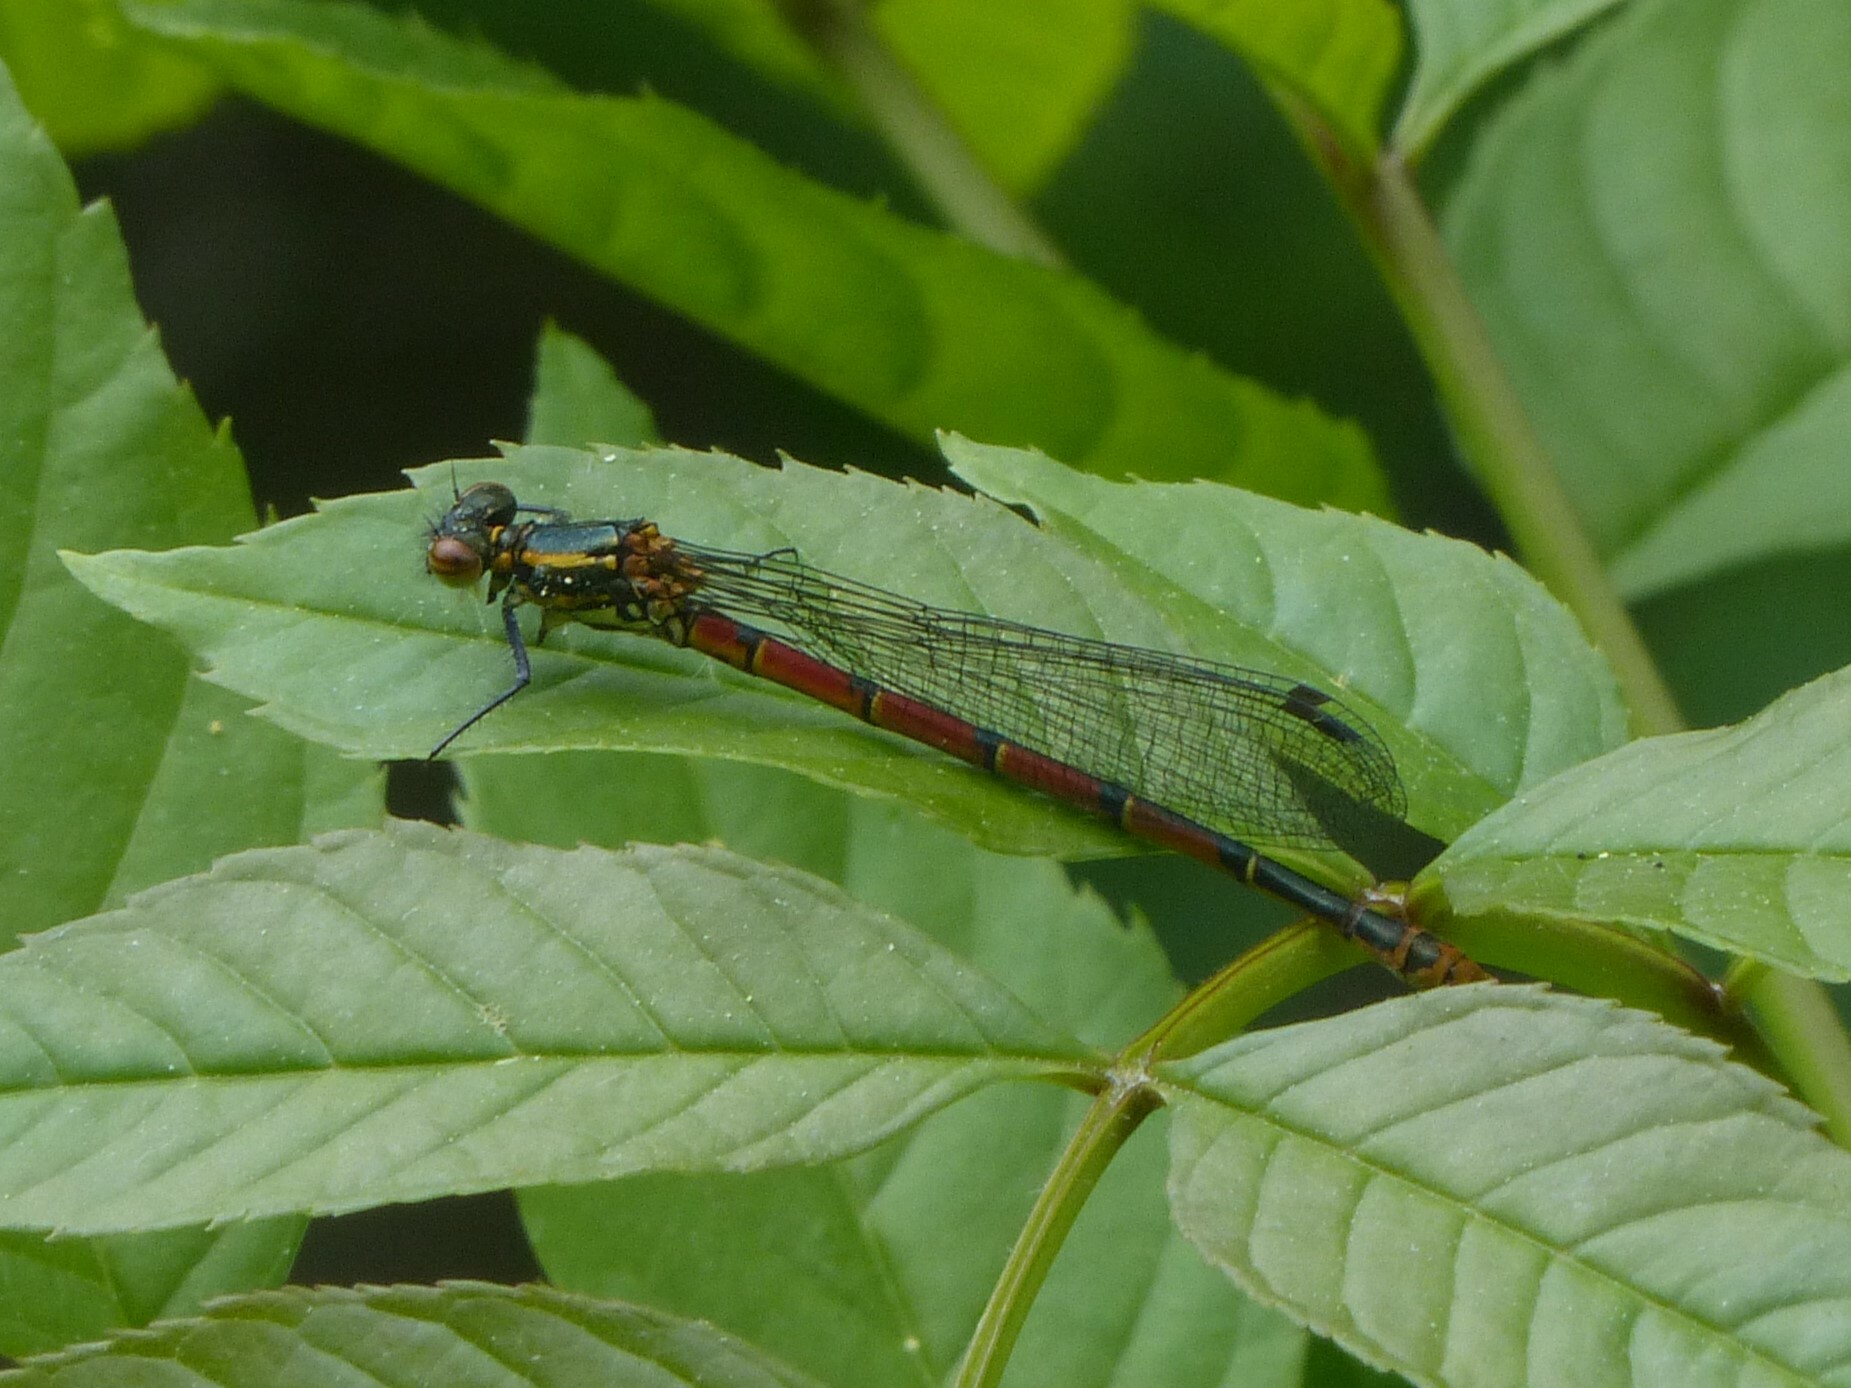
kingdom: Animalia
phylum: Arthropoda
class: Insecta
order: Odonata
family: Coenagrionidae
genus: Pyrrhosoma
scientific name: Pyrrhosoma nymphula
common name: Large red damsel
